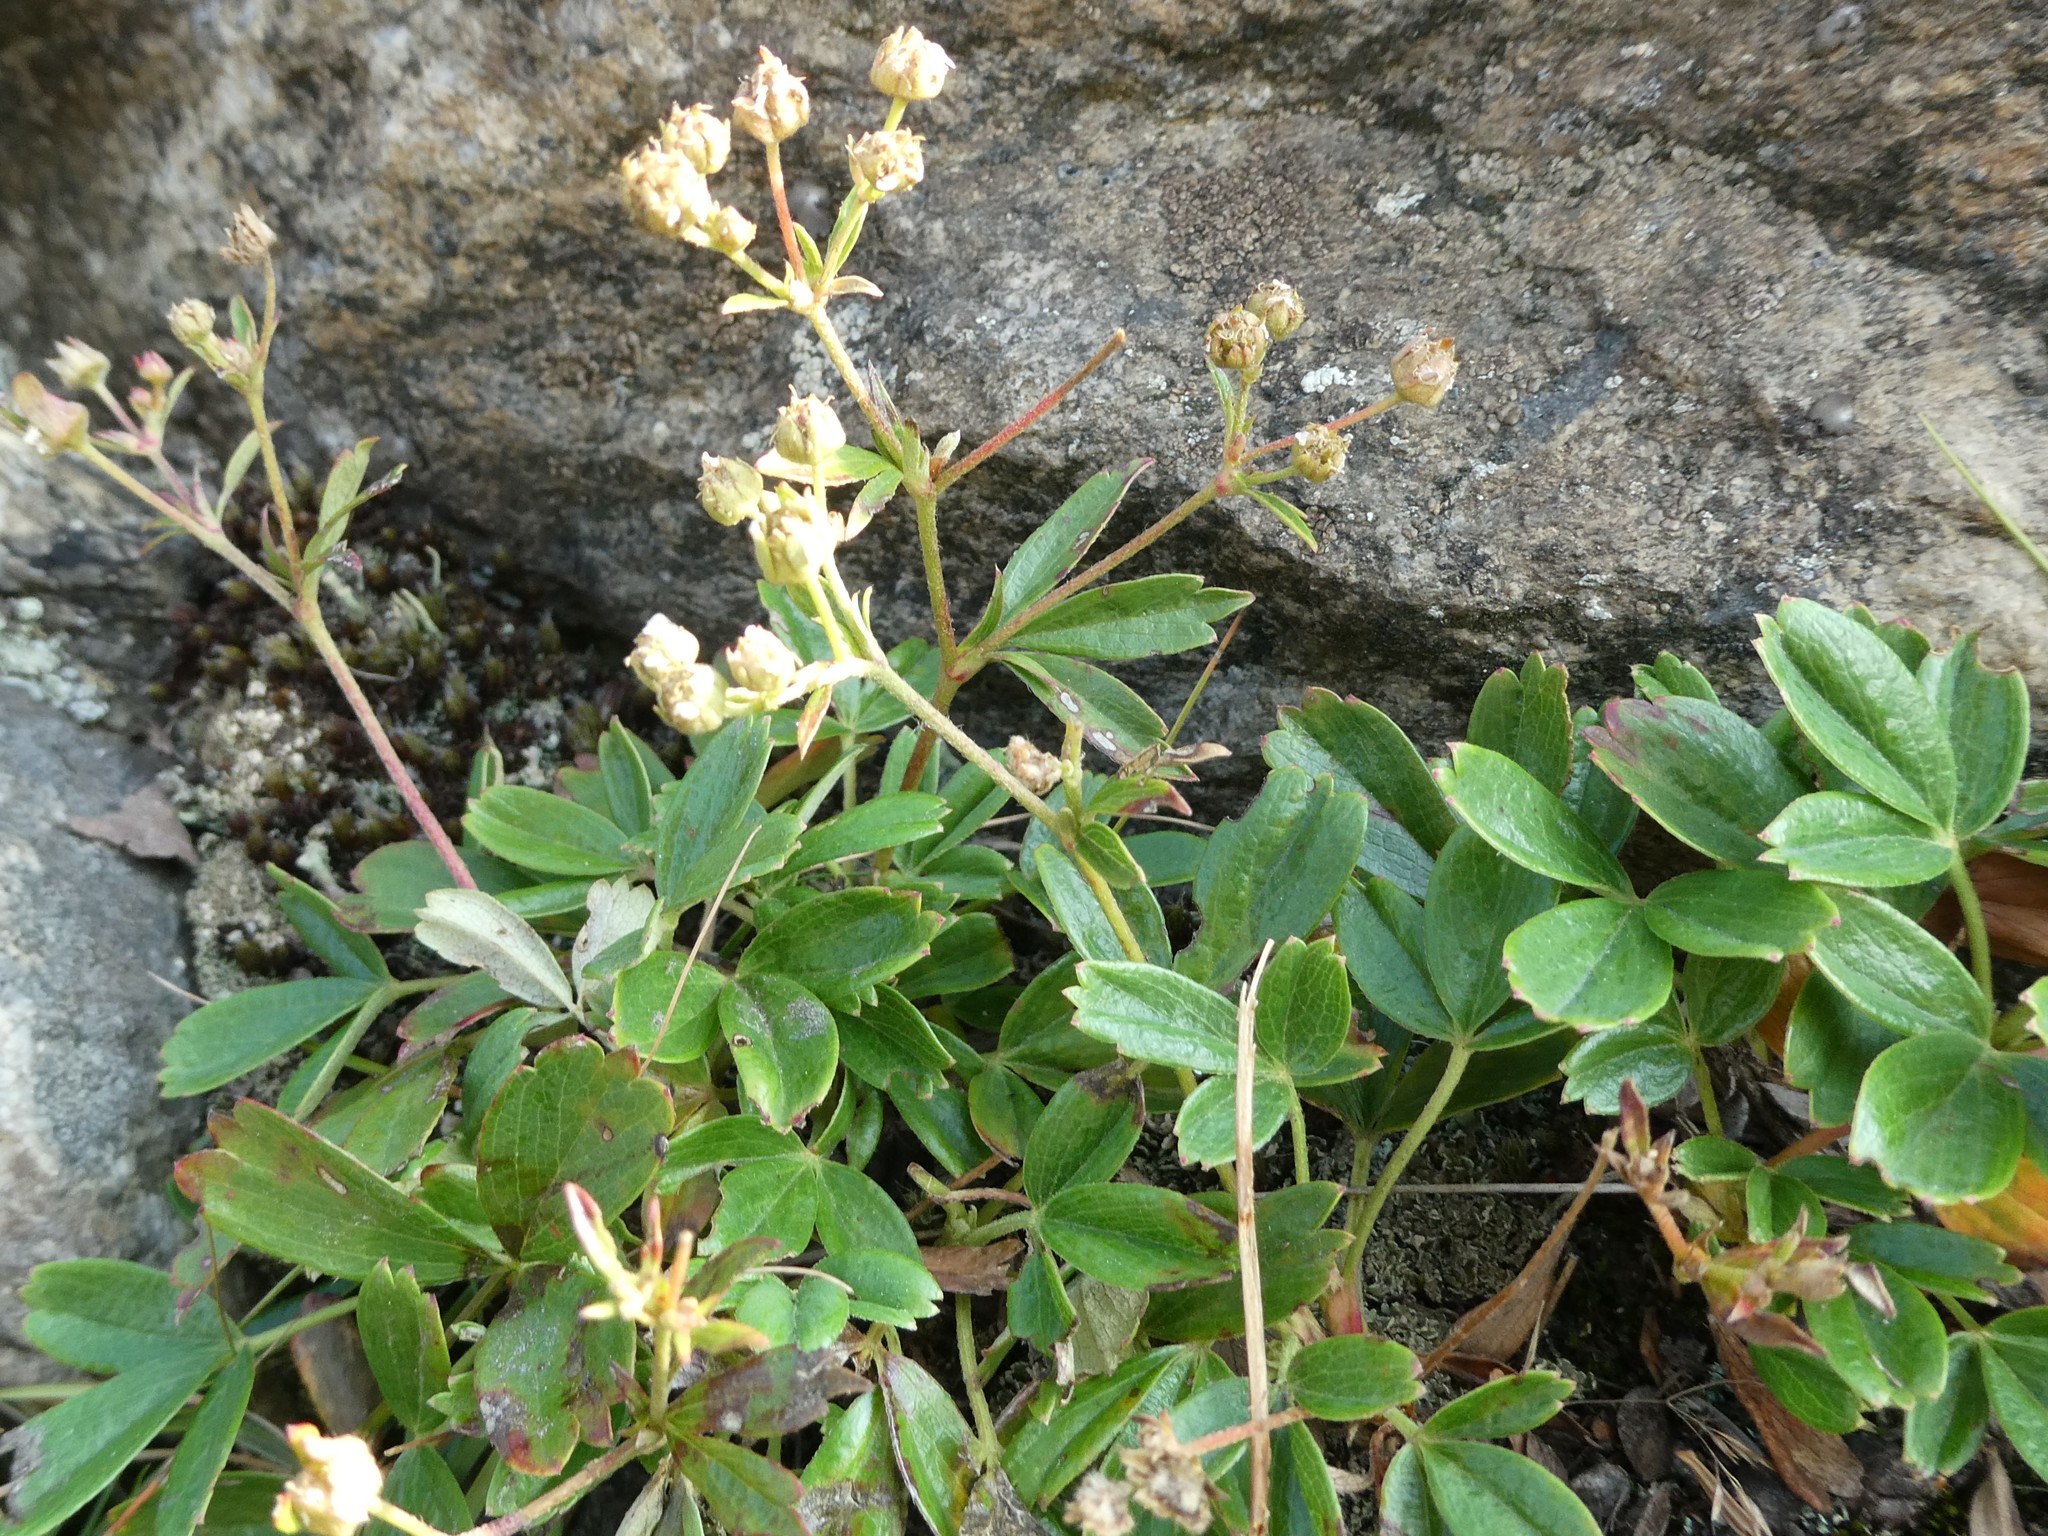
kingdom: Plantae
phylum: Tracheophyta
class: Magnoliopsida
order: Rosales
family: Rosaceae
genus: Sibbaldia
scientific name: Sibbaldia tridentata
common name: Three-toothed cinquefoil
